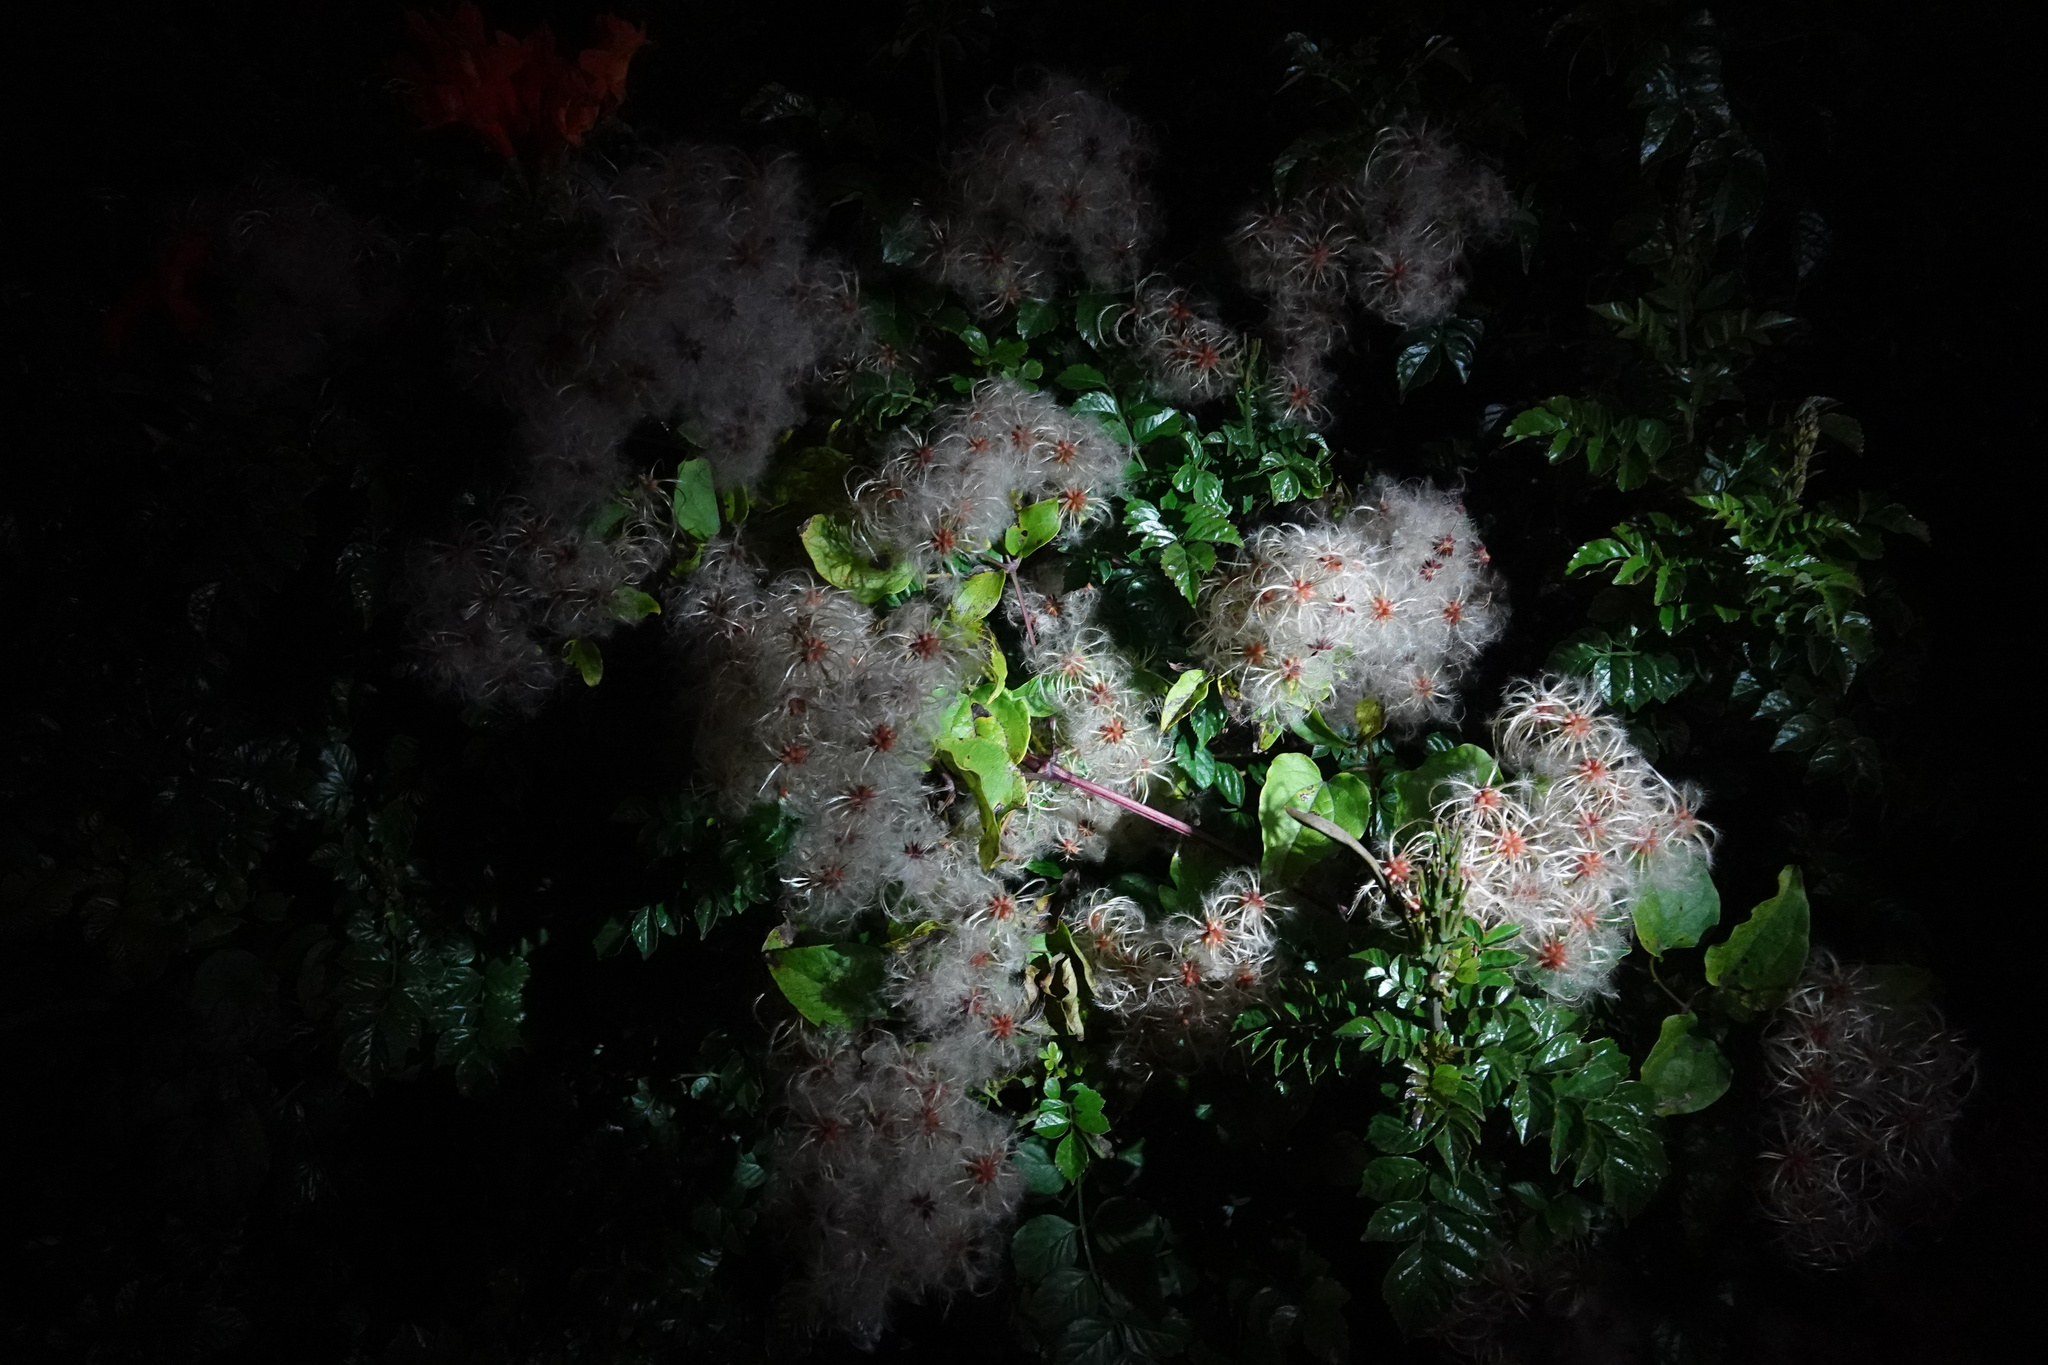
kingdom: Plantae
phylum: Tracheophyta
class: Magnoliopsida
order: Ranunculales
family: Ranunculaceae
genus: Clematis
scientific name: Clematis vitalba
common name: Evergreen clematis
